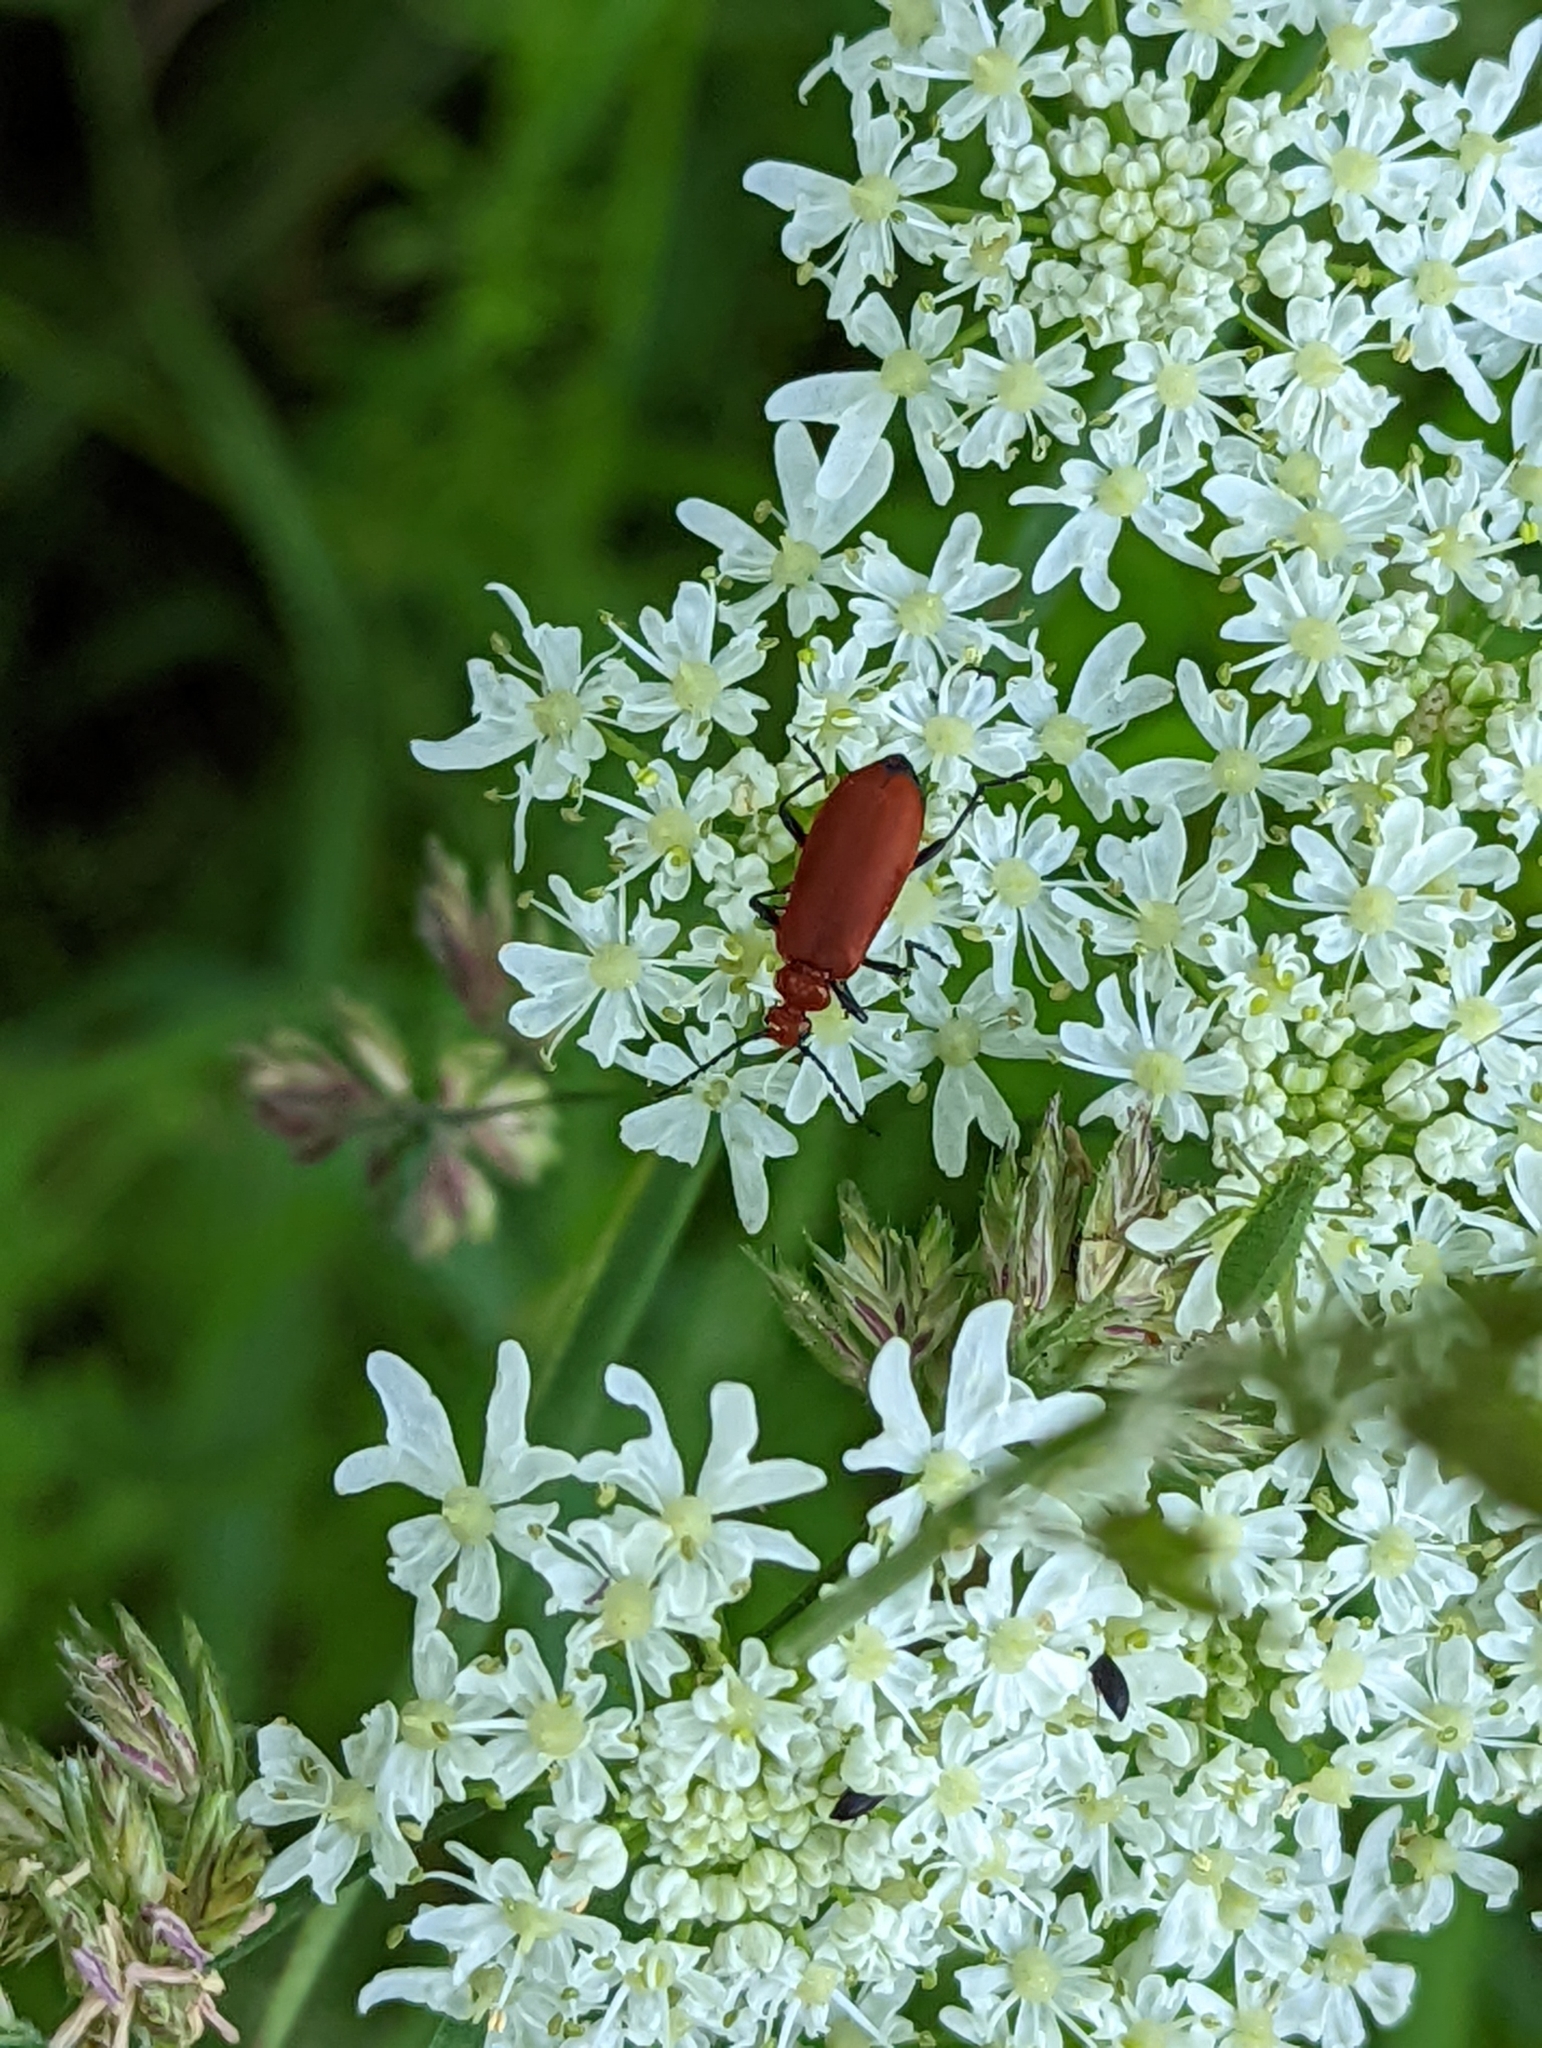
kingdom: Animalia
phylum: Arthropoda
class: Insecta
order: Coleoptera
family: Pyrochroidae
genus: Pyrochroa
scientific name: Pyrochroa serraticornis
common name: Red-headed cardinal beetle
